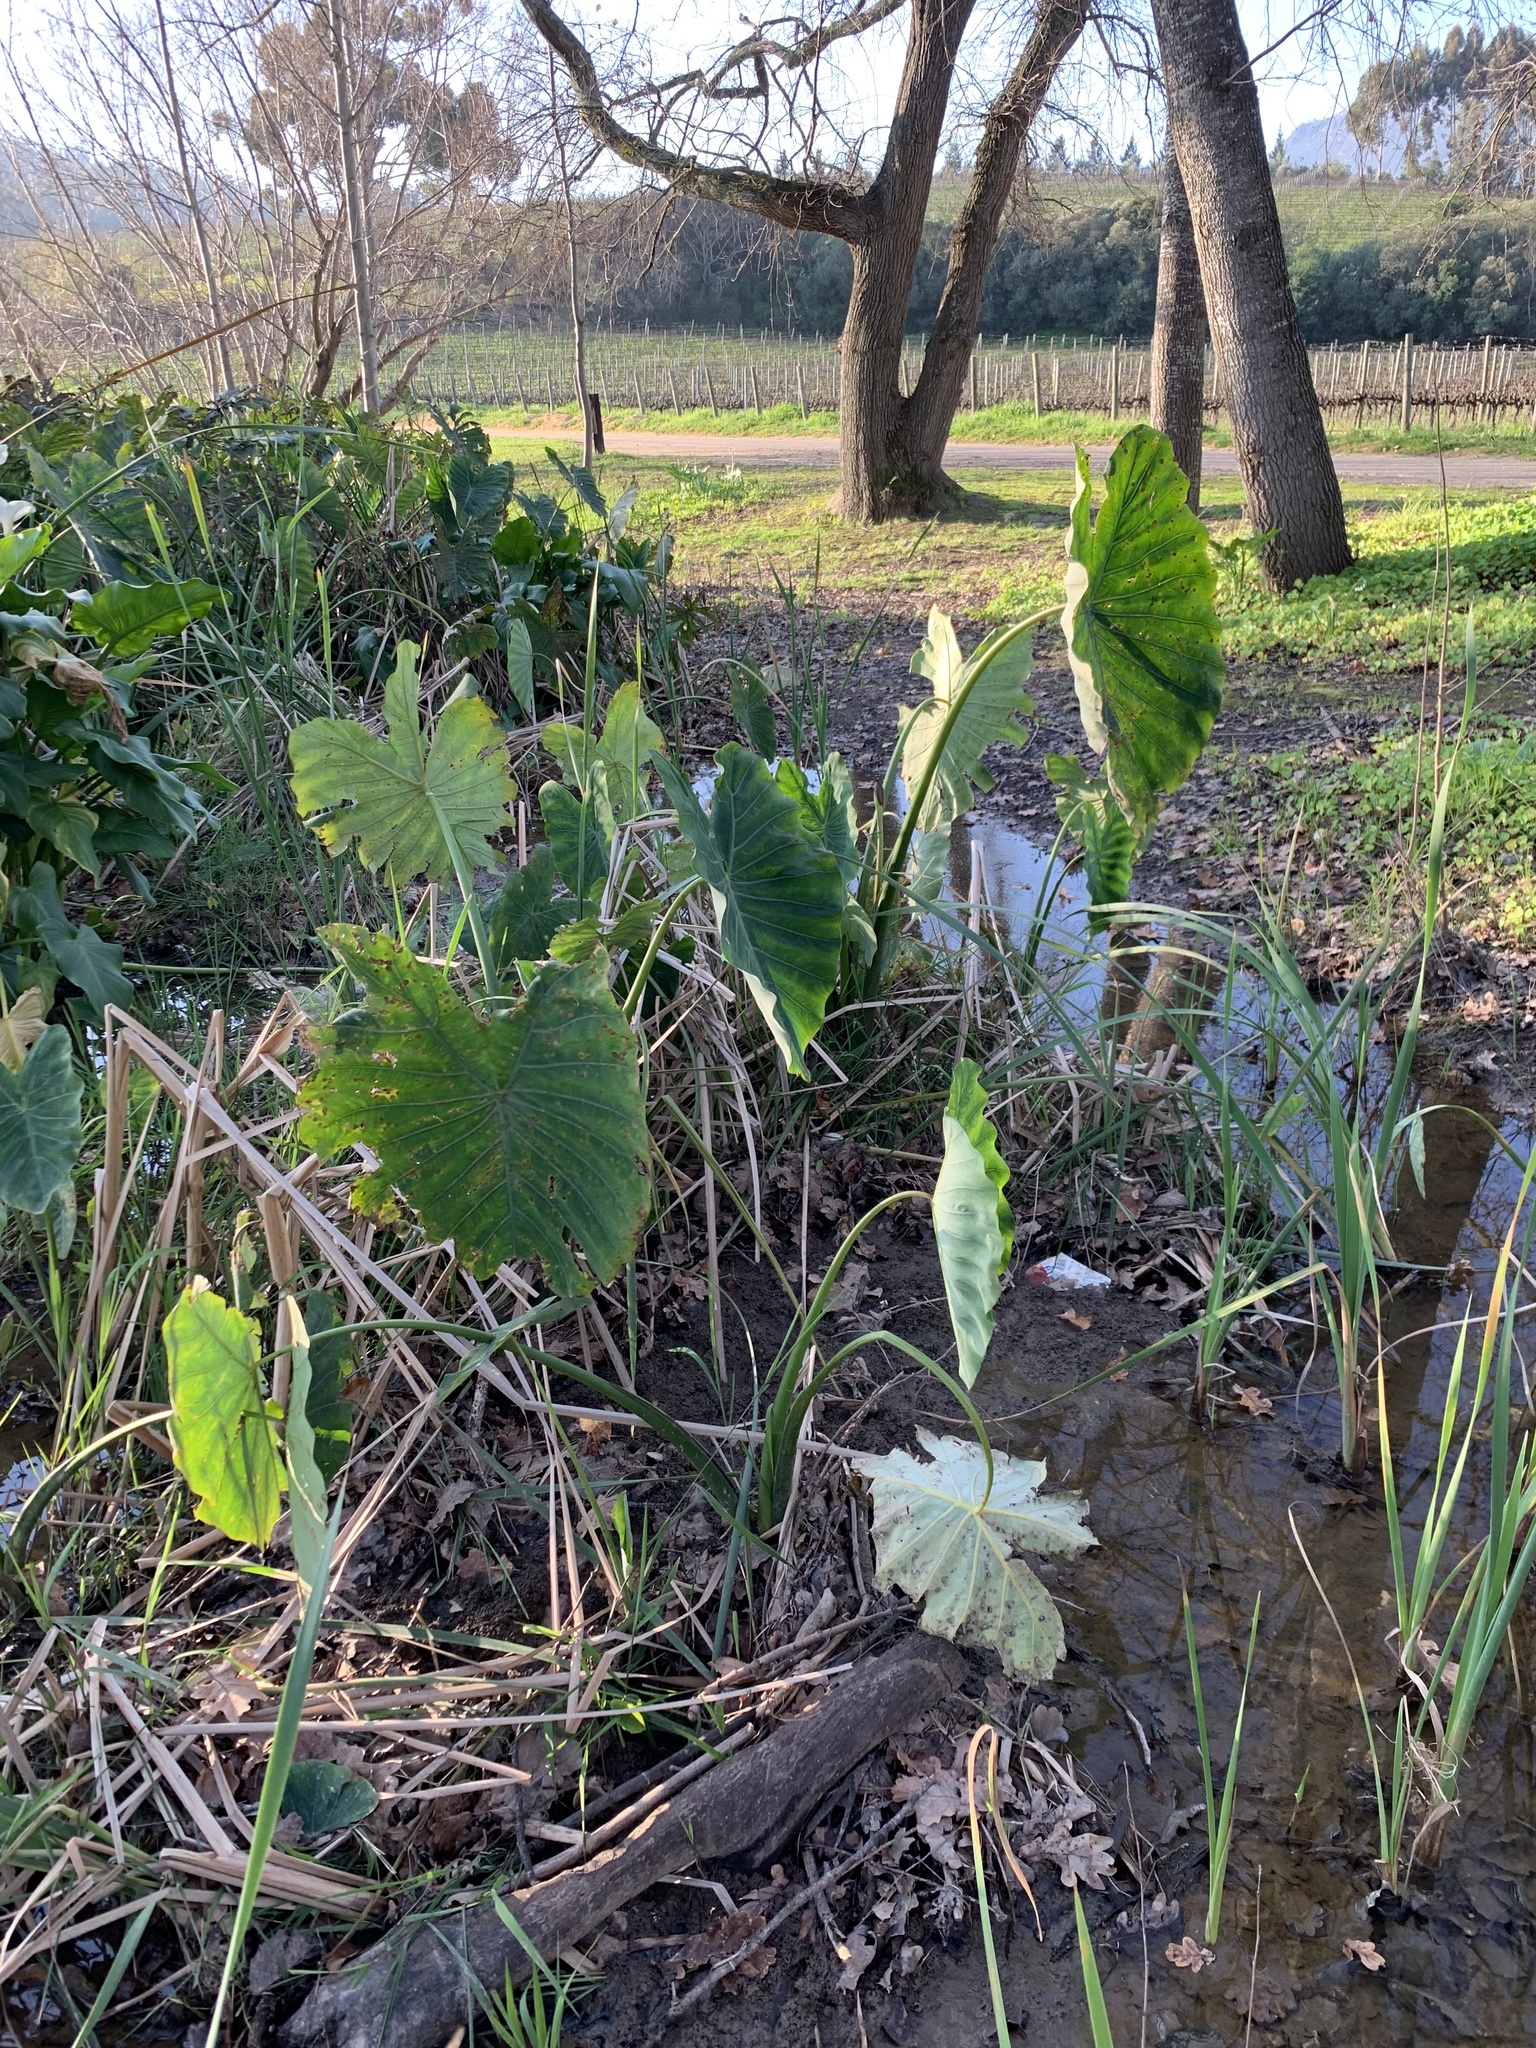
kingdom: Plantae
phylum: Tracheophyta
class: Liliopsida
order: Alismatales
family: Araceae
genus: Colocasia
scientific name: Colocasia esculenta
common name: Taro
